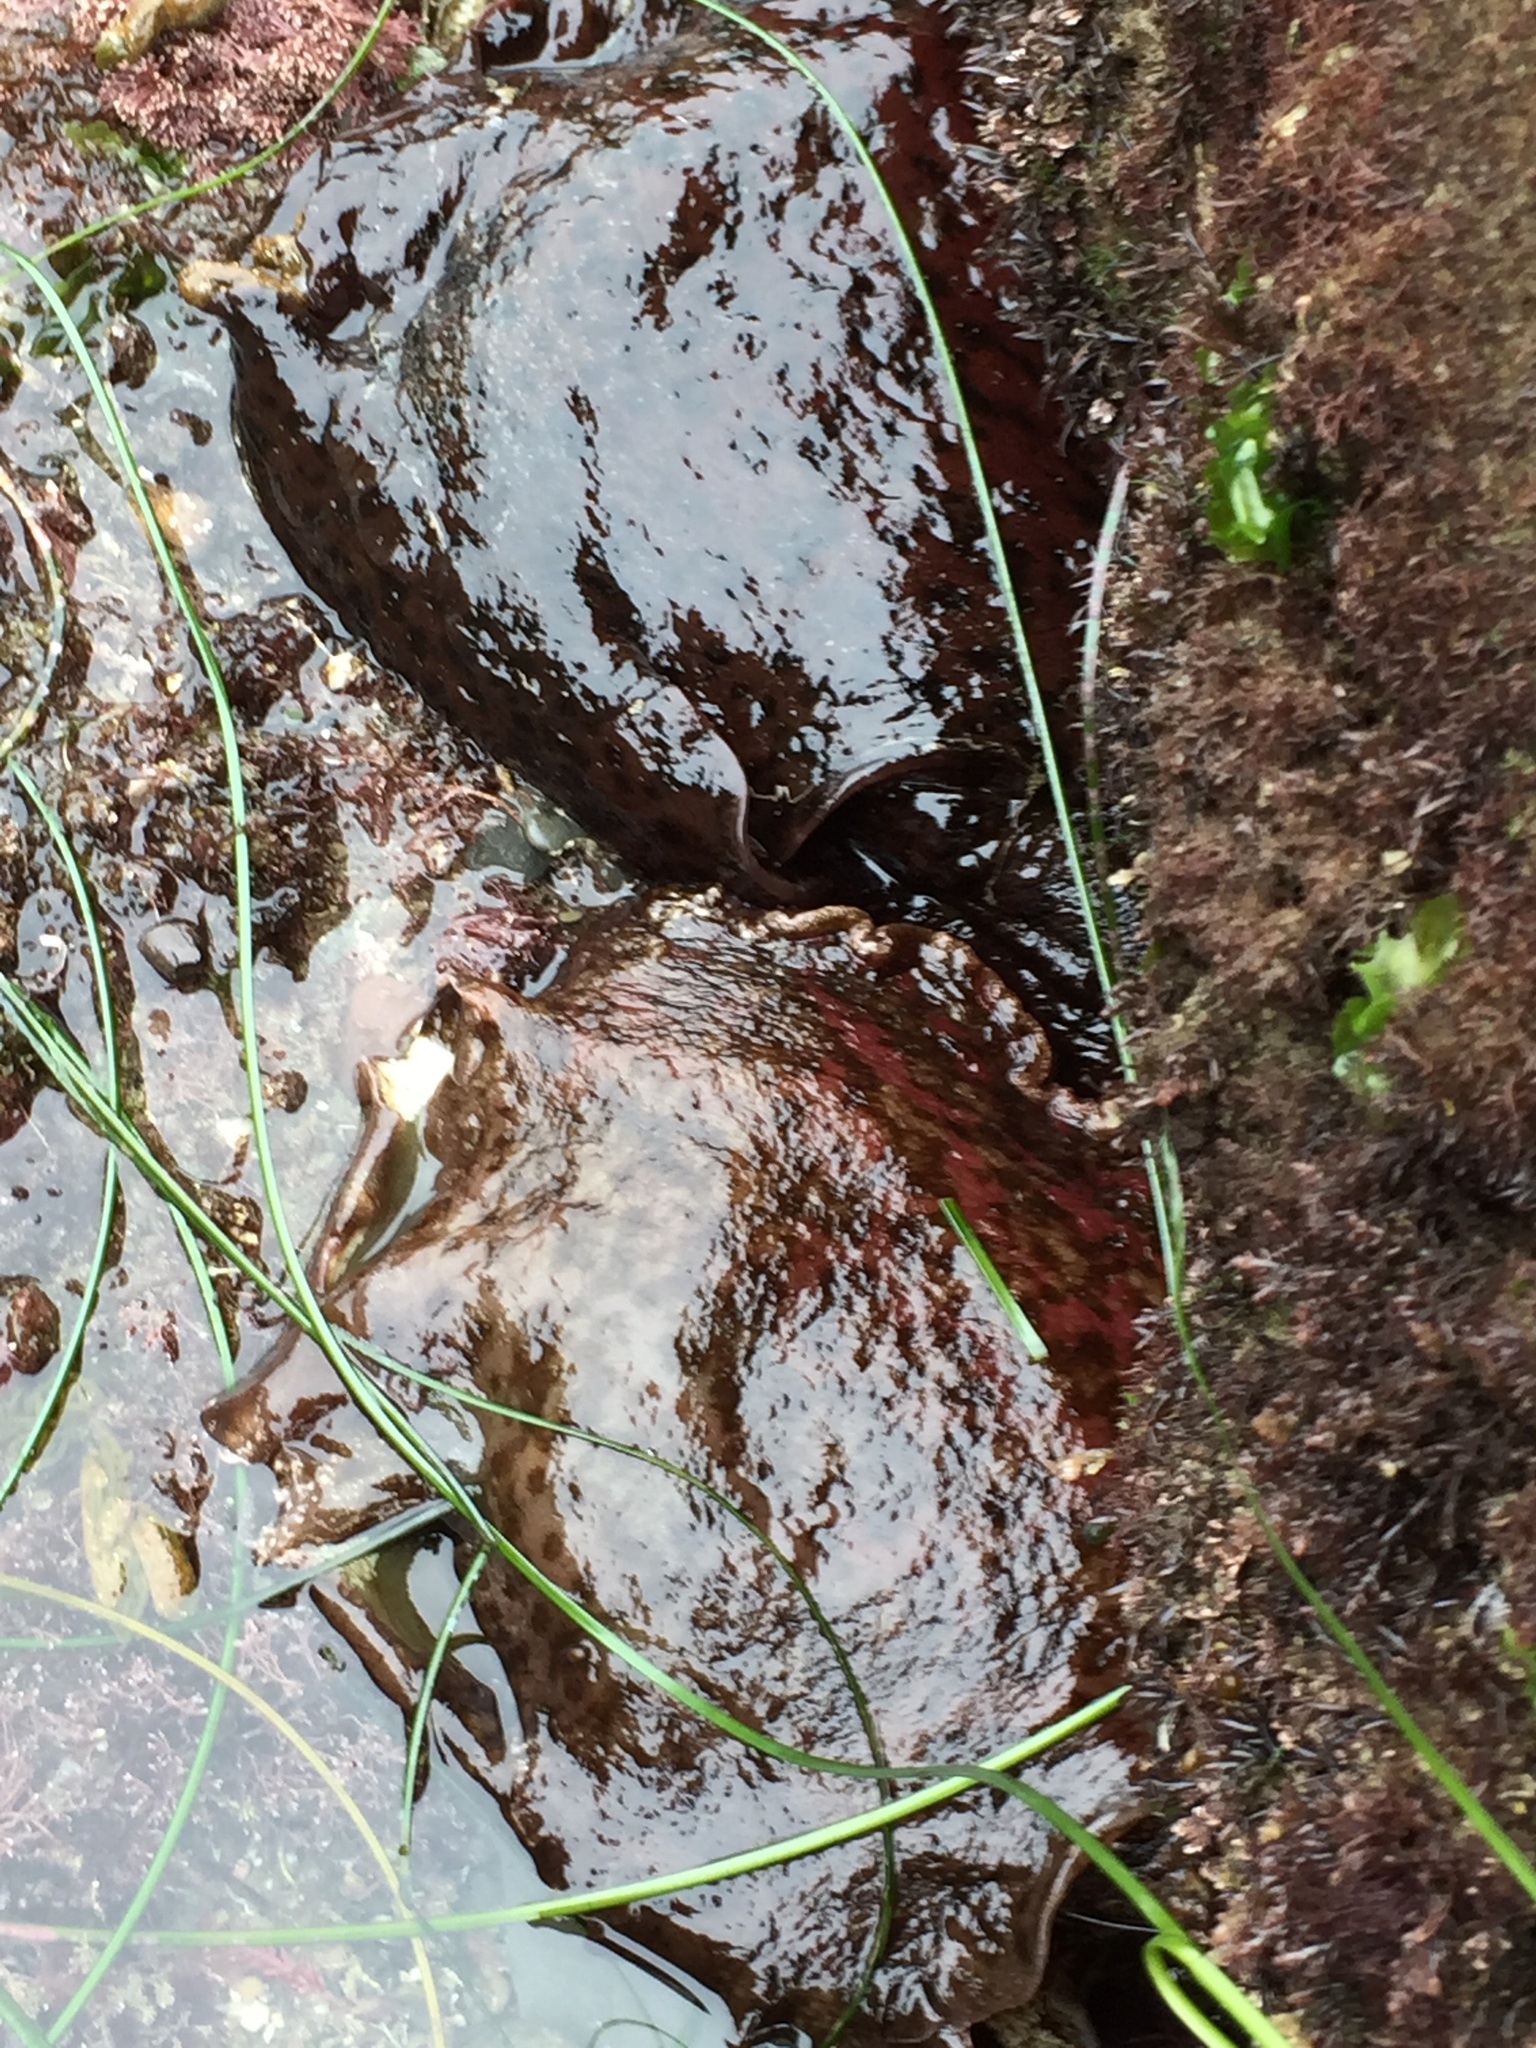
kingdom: Animalia
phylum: Mollusca
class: Gastropoda
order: Aplysiida
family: Aplysiidae
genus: Aplysia
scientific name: Aplysia californica
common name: California seahare
